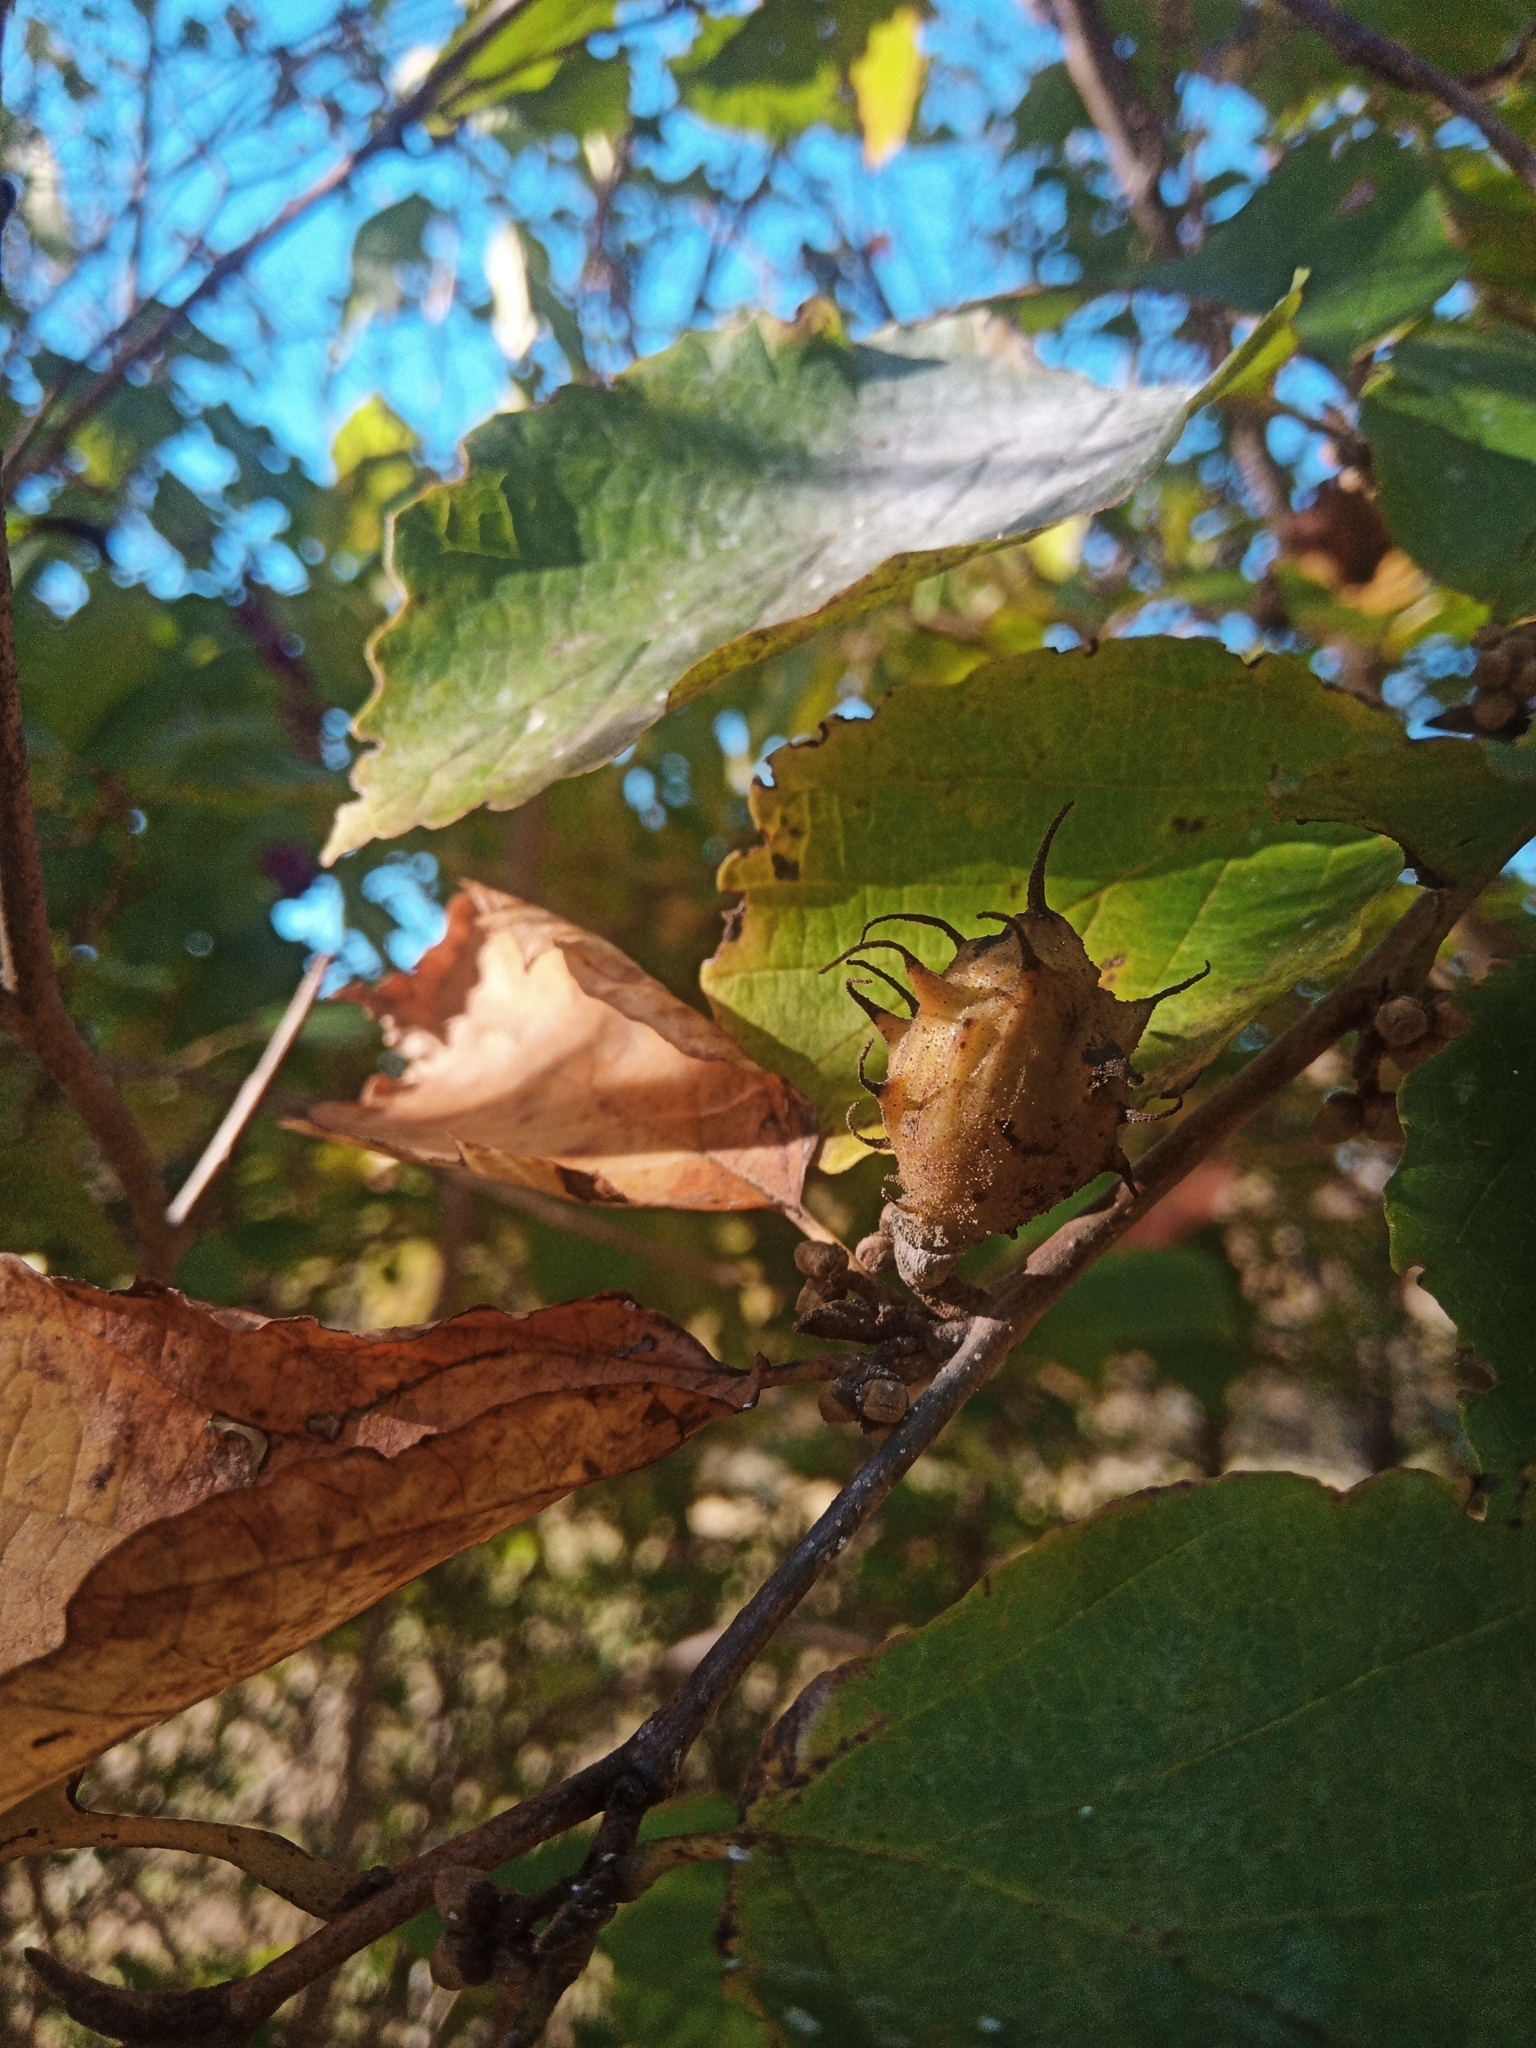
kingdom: Animalia
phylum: Arthropoda
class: Insecta
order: Hemiptera
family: Aphididae
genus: Hamamelistes
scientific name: Hamamelistes spinosus
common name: Witch hazel gall aphid
